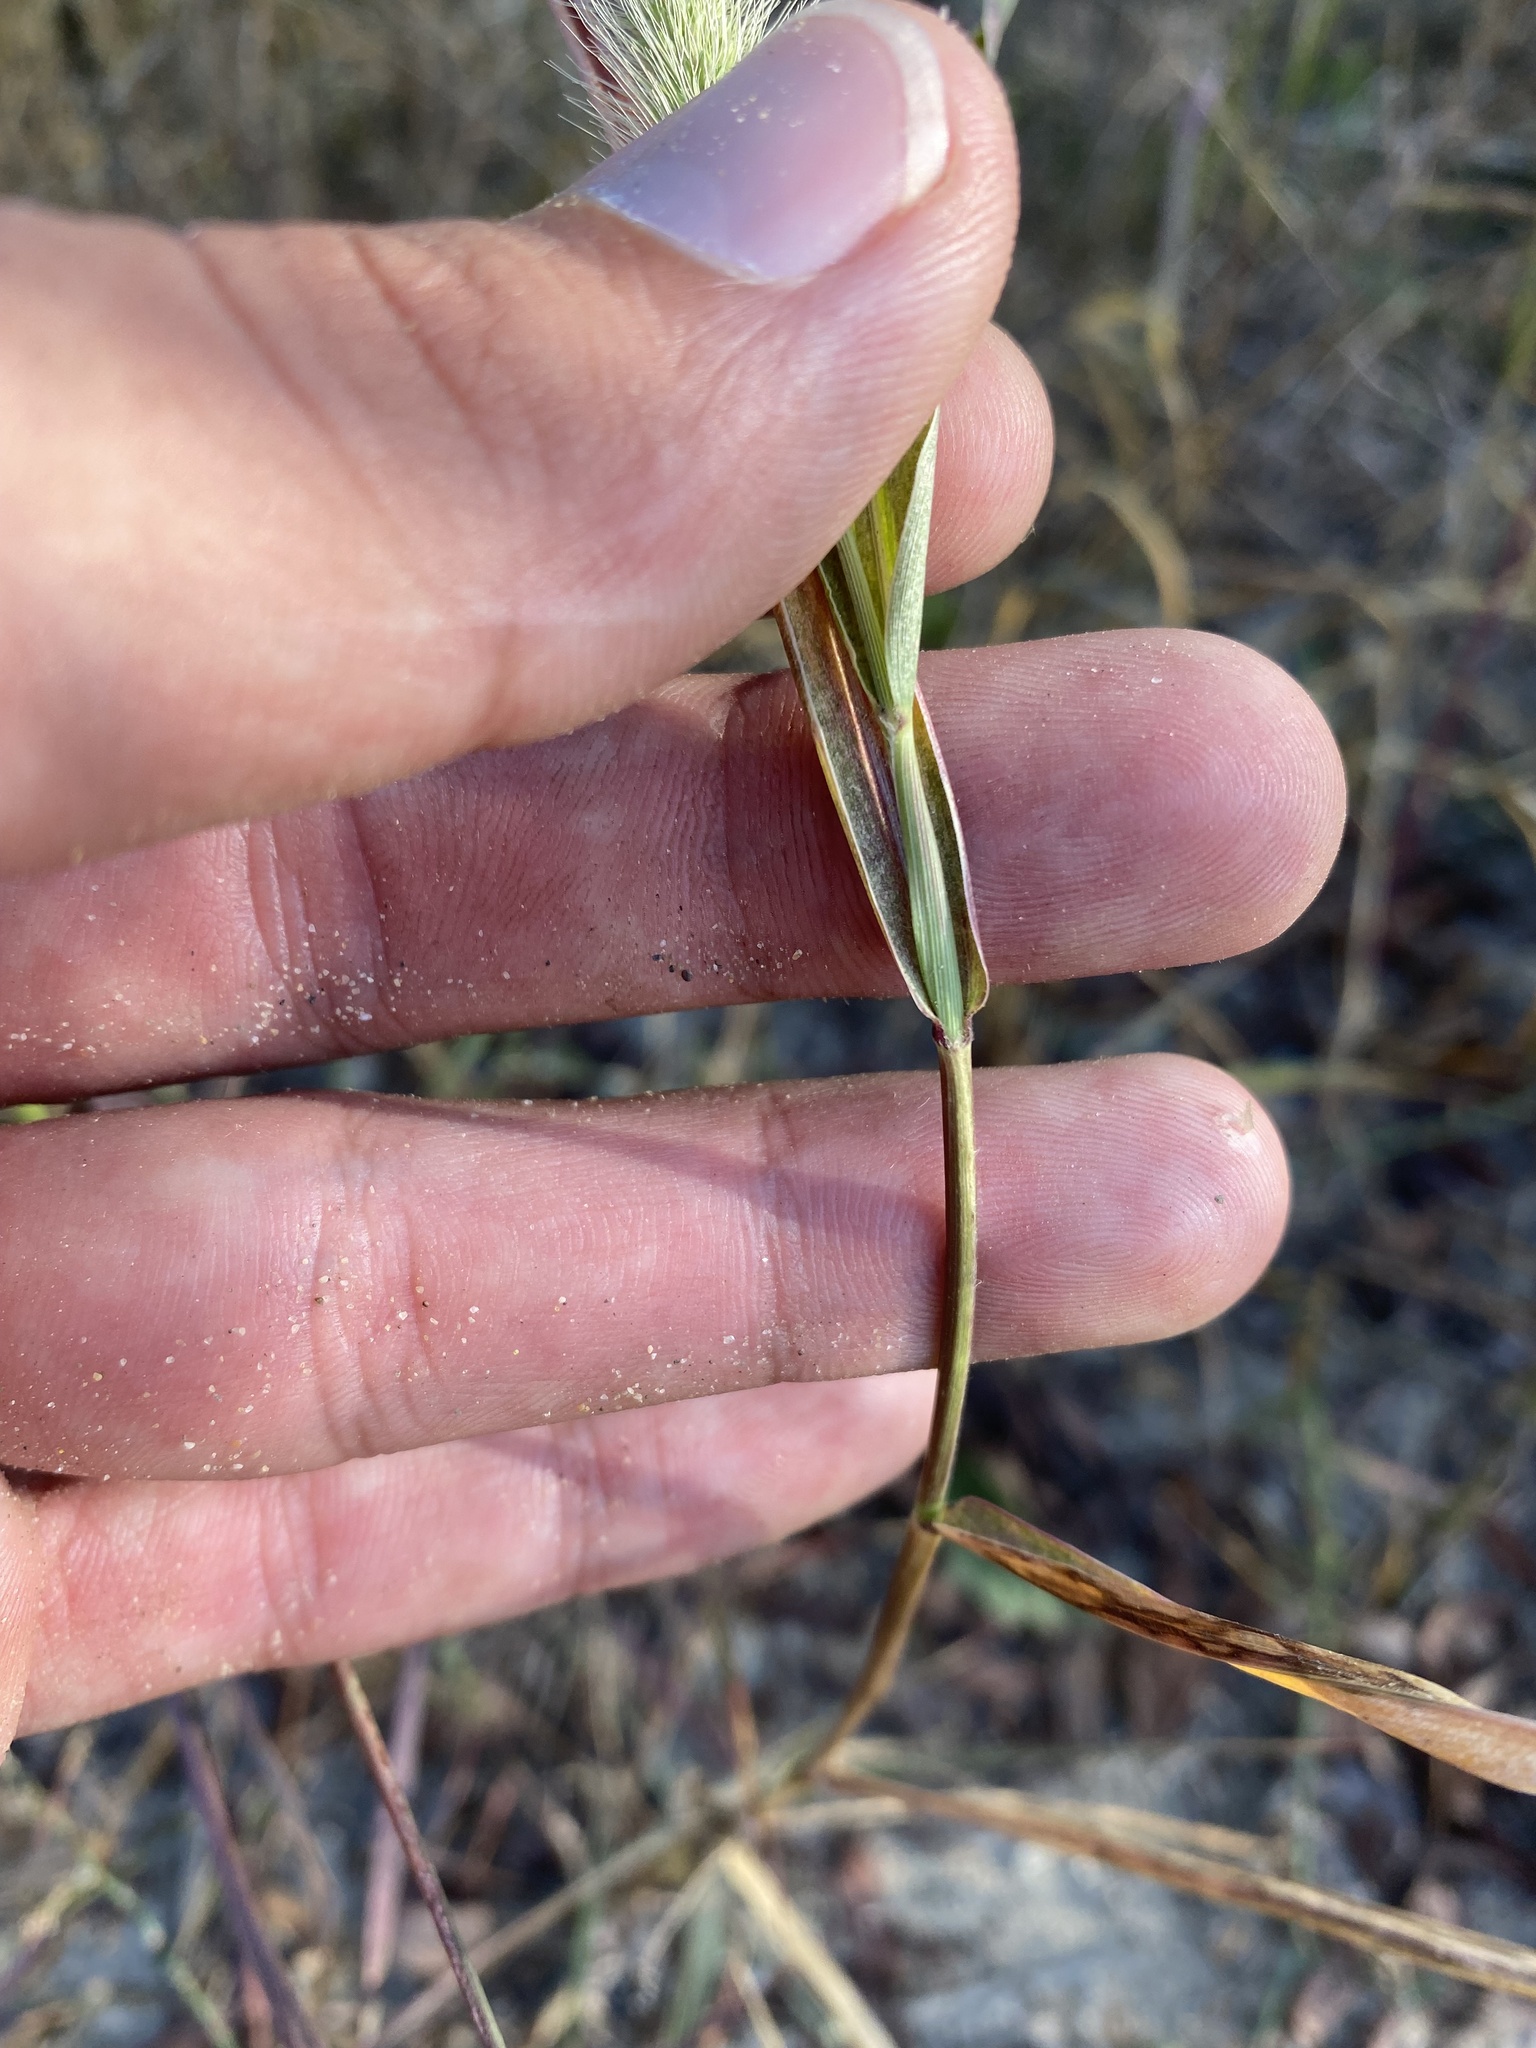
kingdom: Plantae
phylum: Tracheophyta
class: Liliopsida
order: Poales
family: Poaceae
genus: Setaria
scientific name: Setaria viridis
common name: Green bristlegrass
